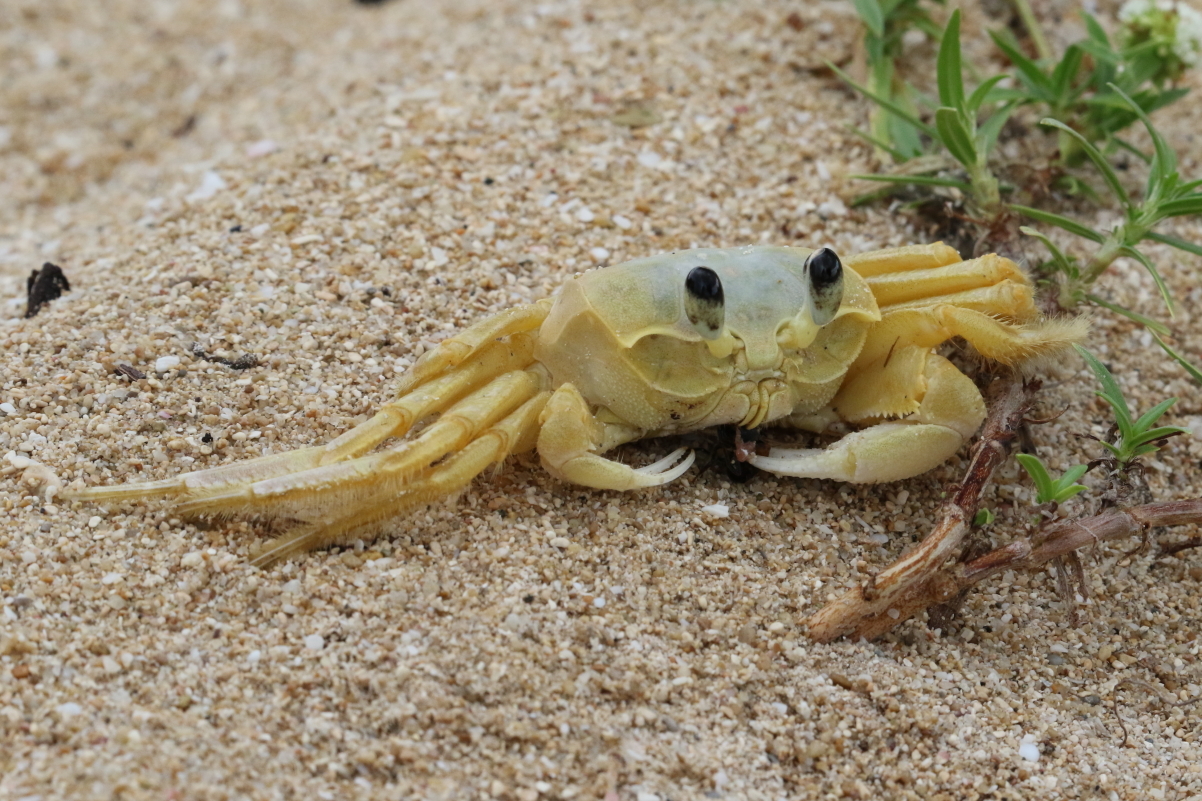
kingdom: Animalia
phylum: Arthropoda
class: Malacostraca
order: Decapoda
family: Ocypodidae
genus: Ocypode
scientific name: Ocypode quadrata
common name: Ghost crab
